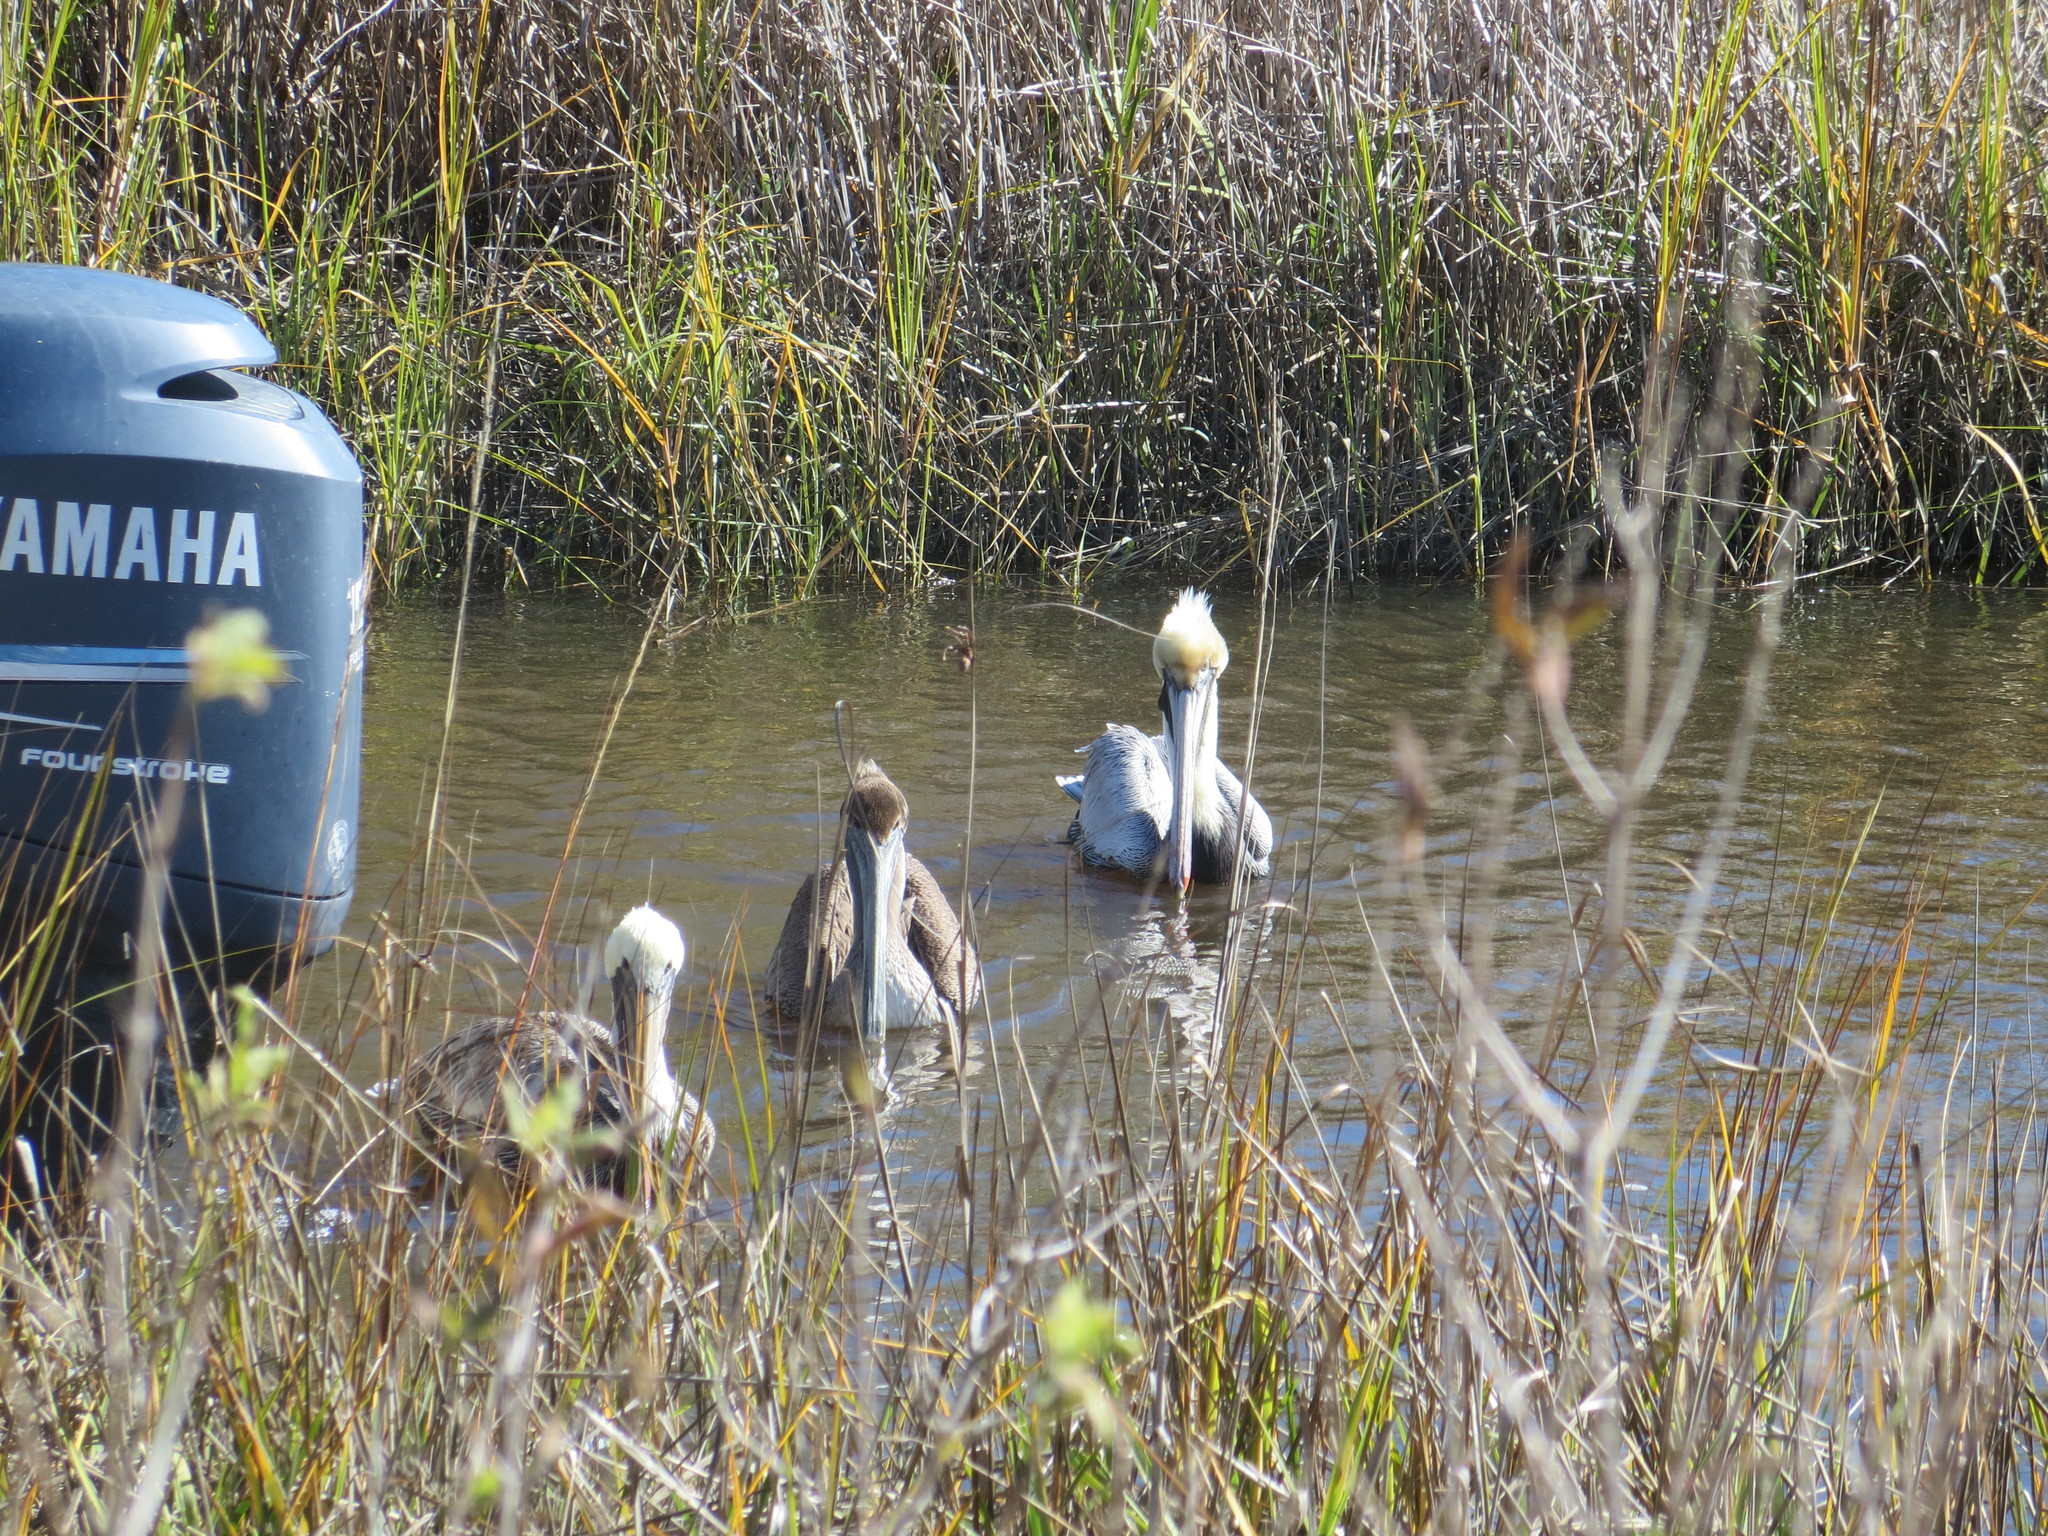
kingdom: Animalia
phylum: Chordata
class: Aves
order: Pelecaniformes
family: Pelecanidae
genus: Pelecanus
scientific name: Pelecanus occidentalis
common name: Brown pelican
